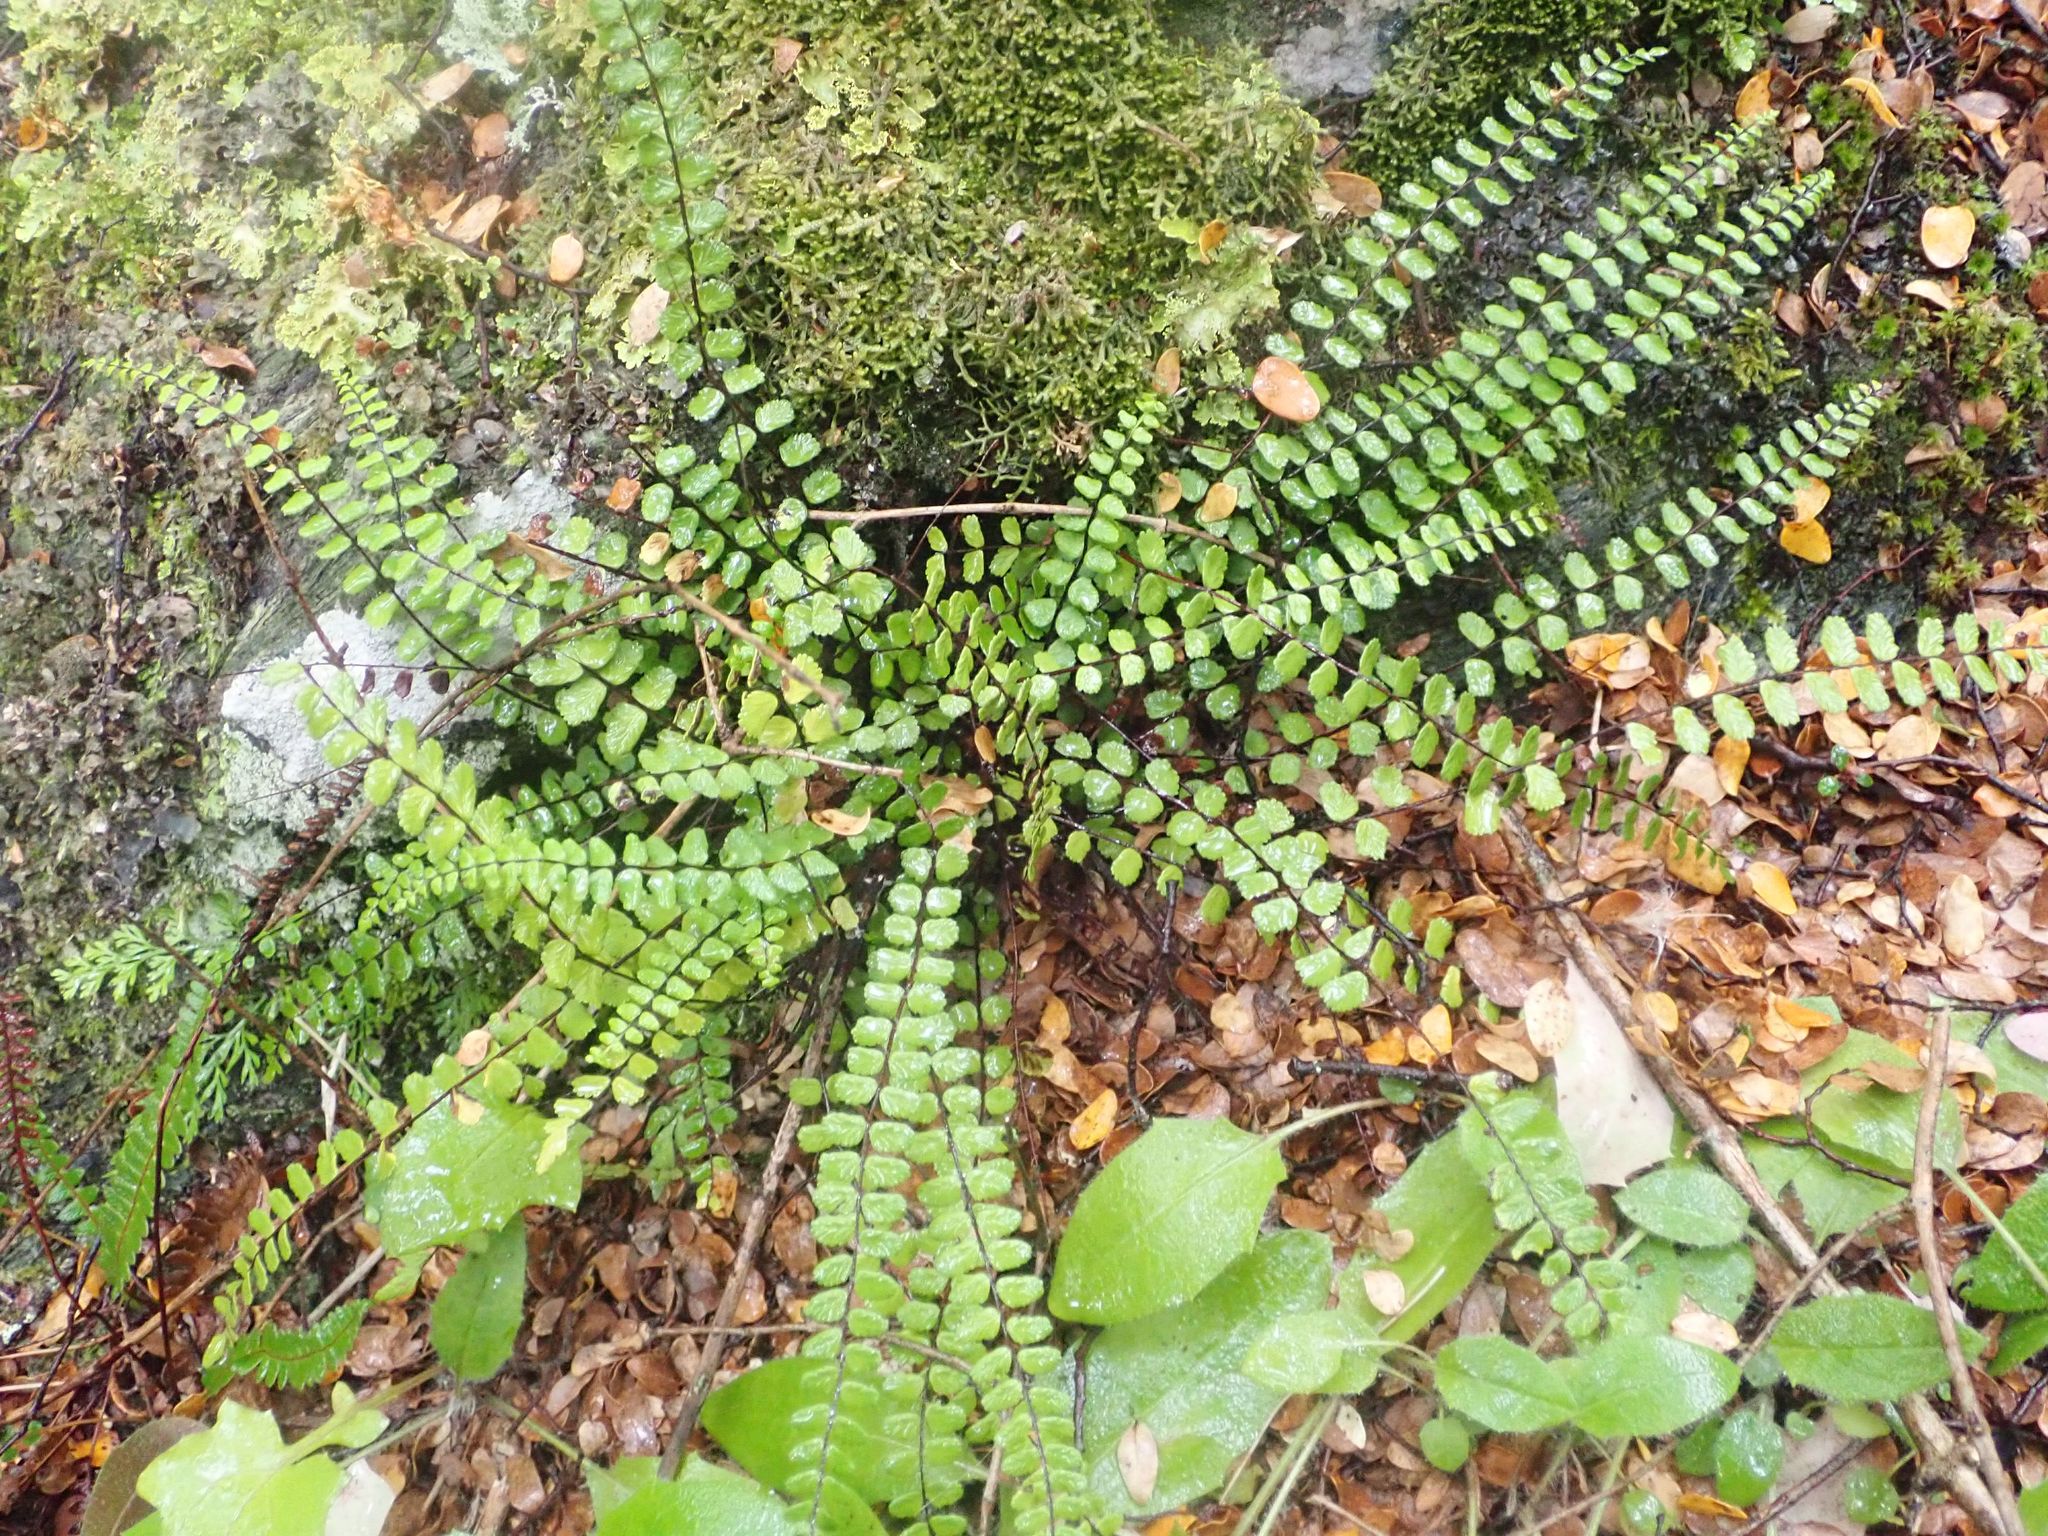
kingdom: Plantae
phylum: Tracheophyta
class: Polypodiopsida
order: Polypodiales
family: Aspleniaceae
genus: Asplenium
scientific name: Asplenium trichomanes
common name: Maidenhair spleenwort
